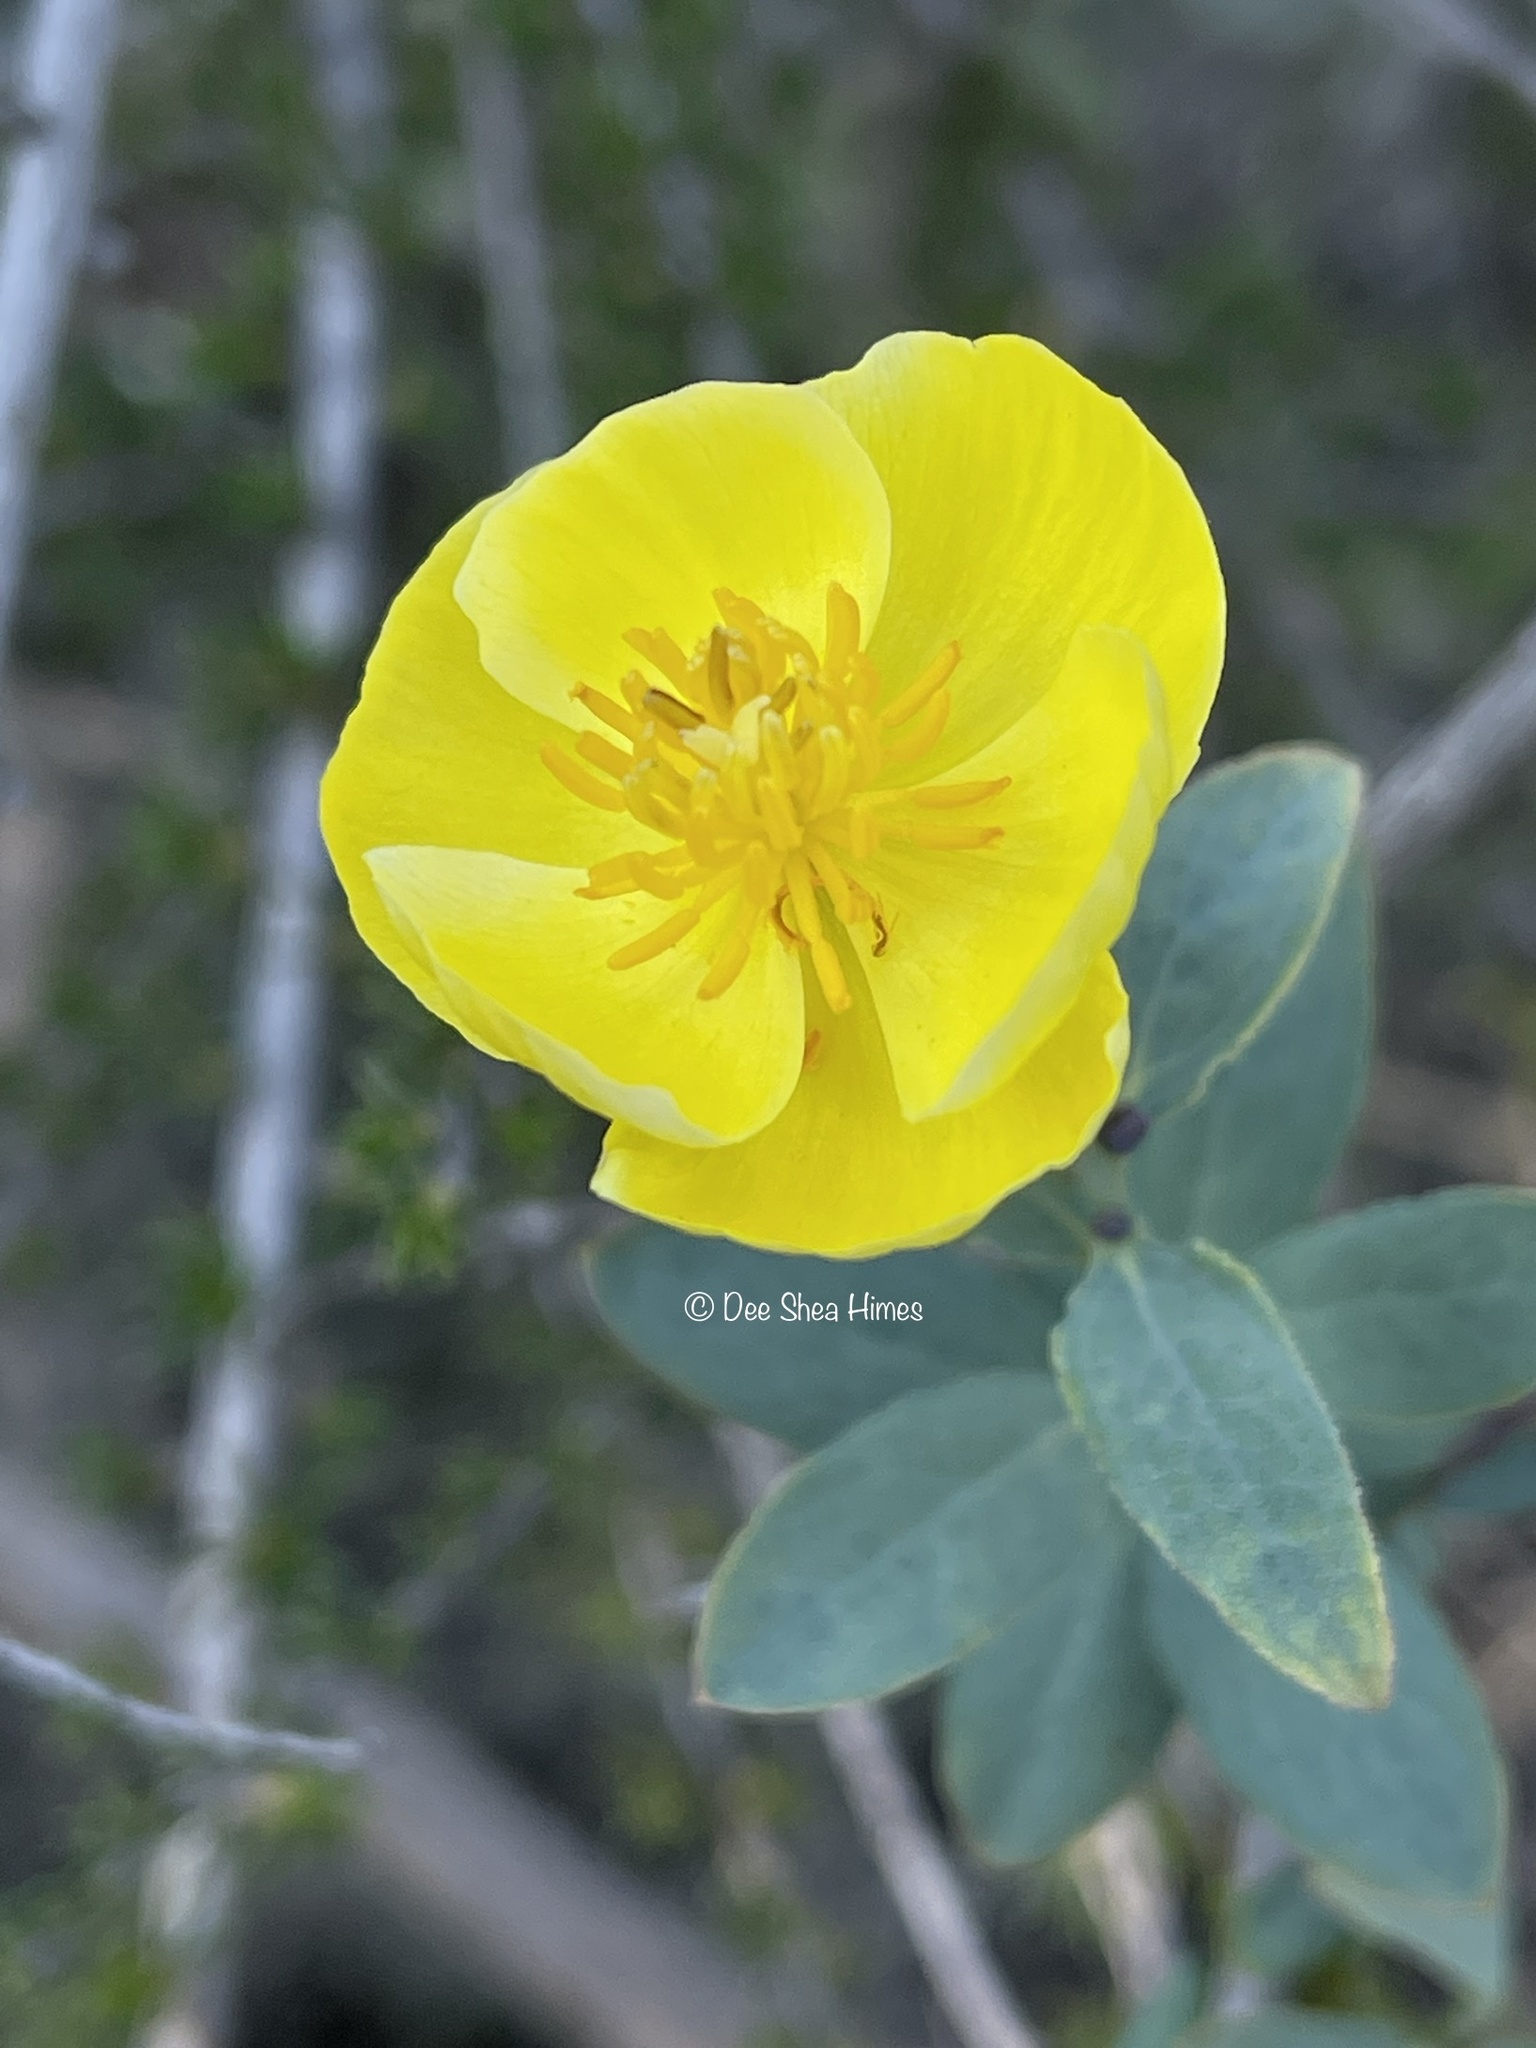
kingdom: Plantae
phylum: Tracheophyta
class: Magnoliopsida
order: Ranunculales
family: Papaveraceae
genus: Dendromecon
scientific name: Dendromecon rigida
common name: Tree poppy
